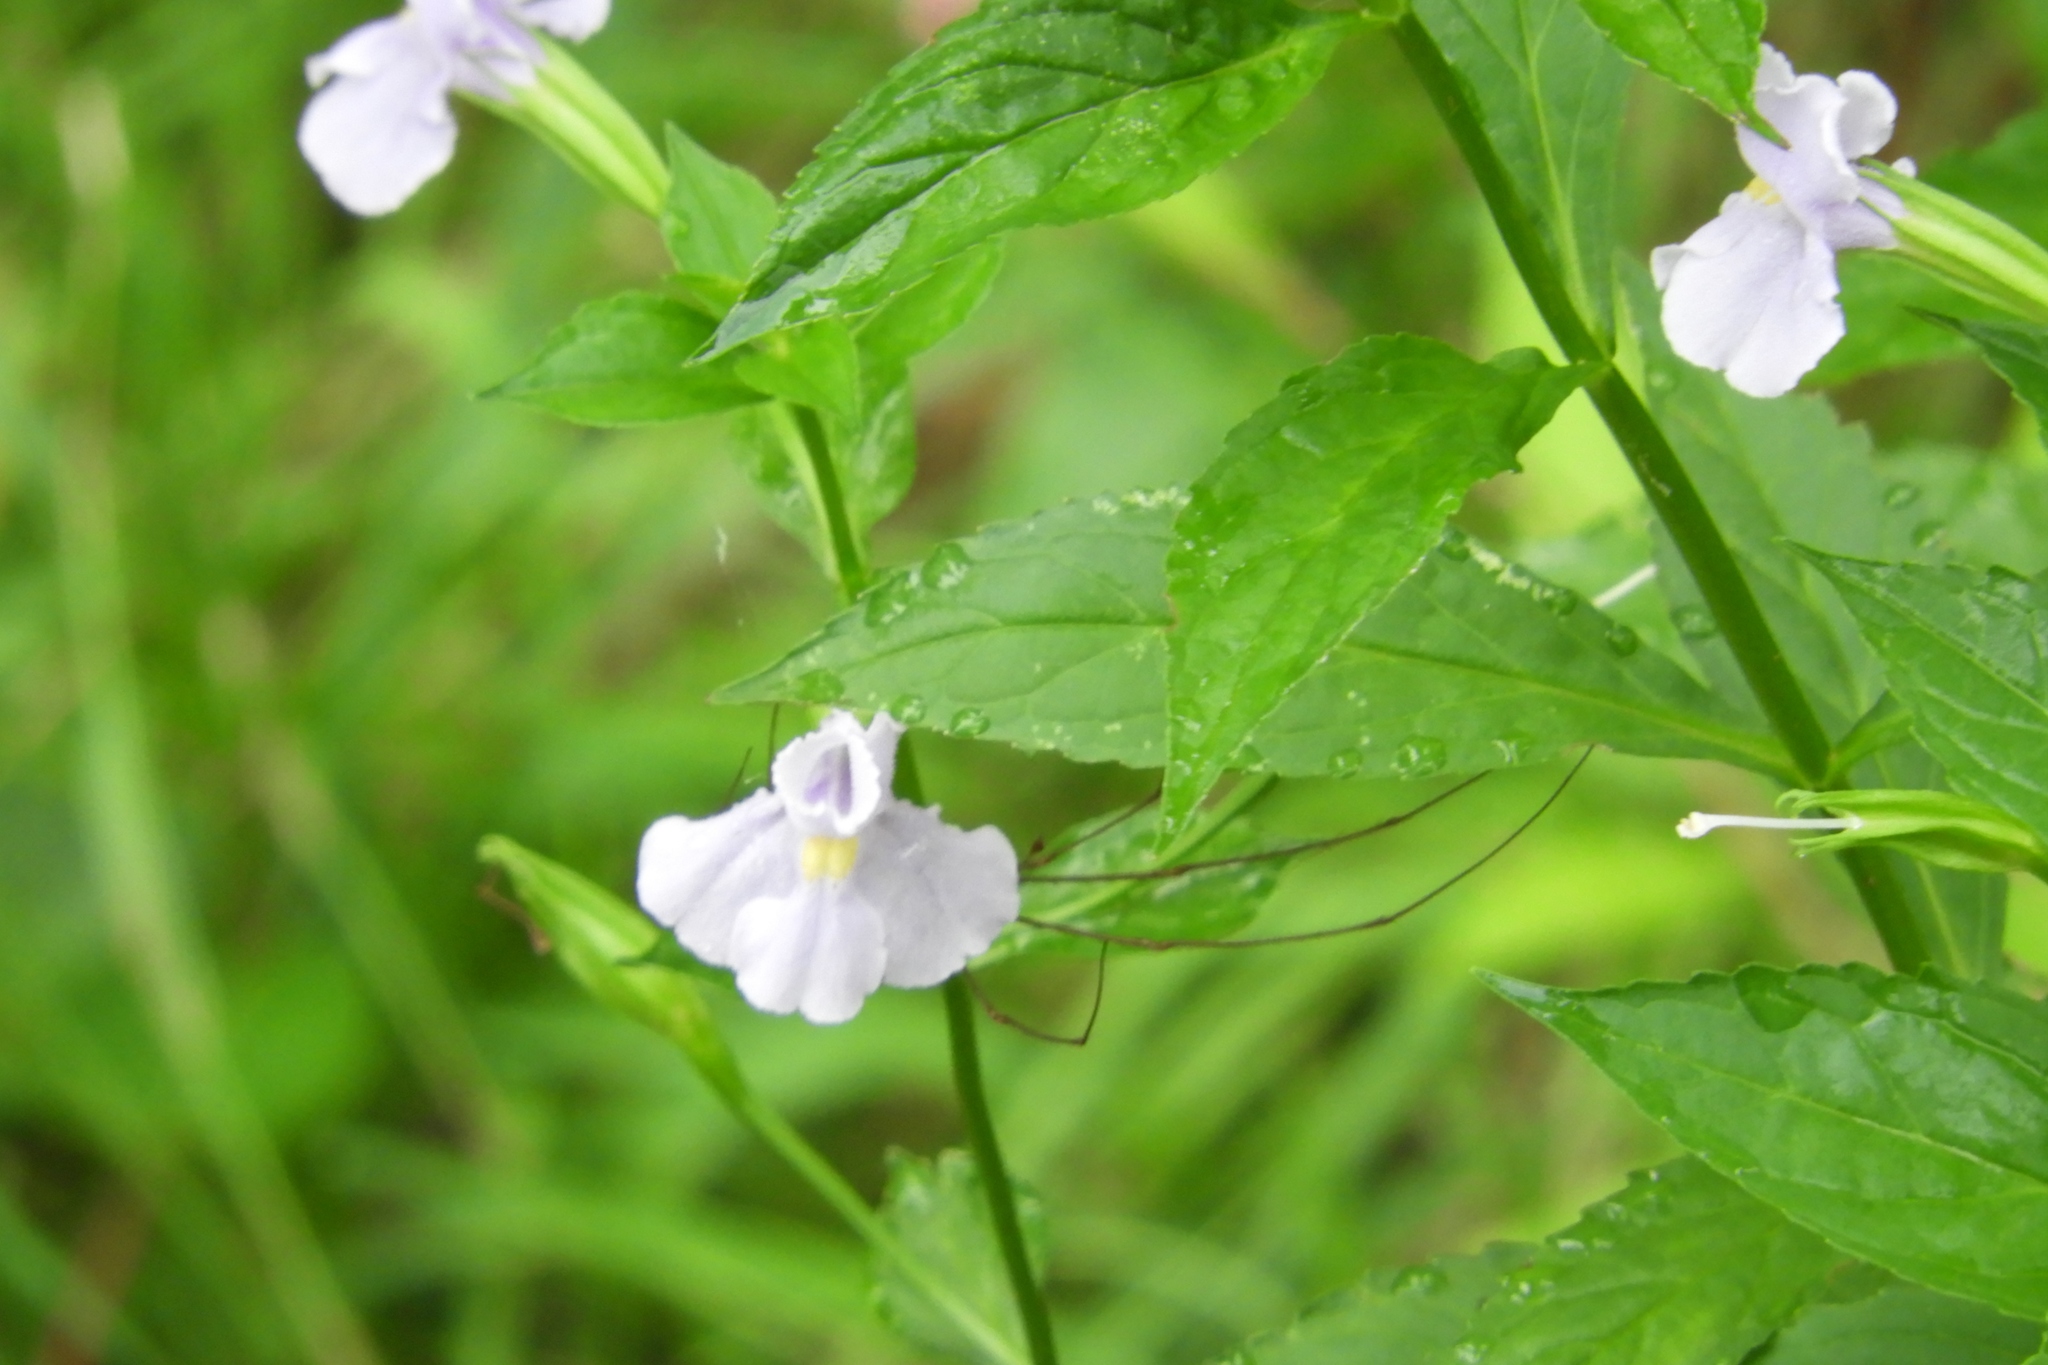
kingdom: Plantae
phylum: Tracheophyta
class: Magnoliopsida
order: Lamiales
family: Phrymaceae
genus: Mimulus
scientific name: Mimulus ringens
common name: Allegheny monkeyflower
